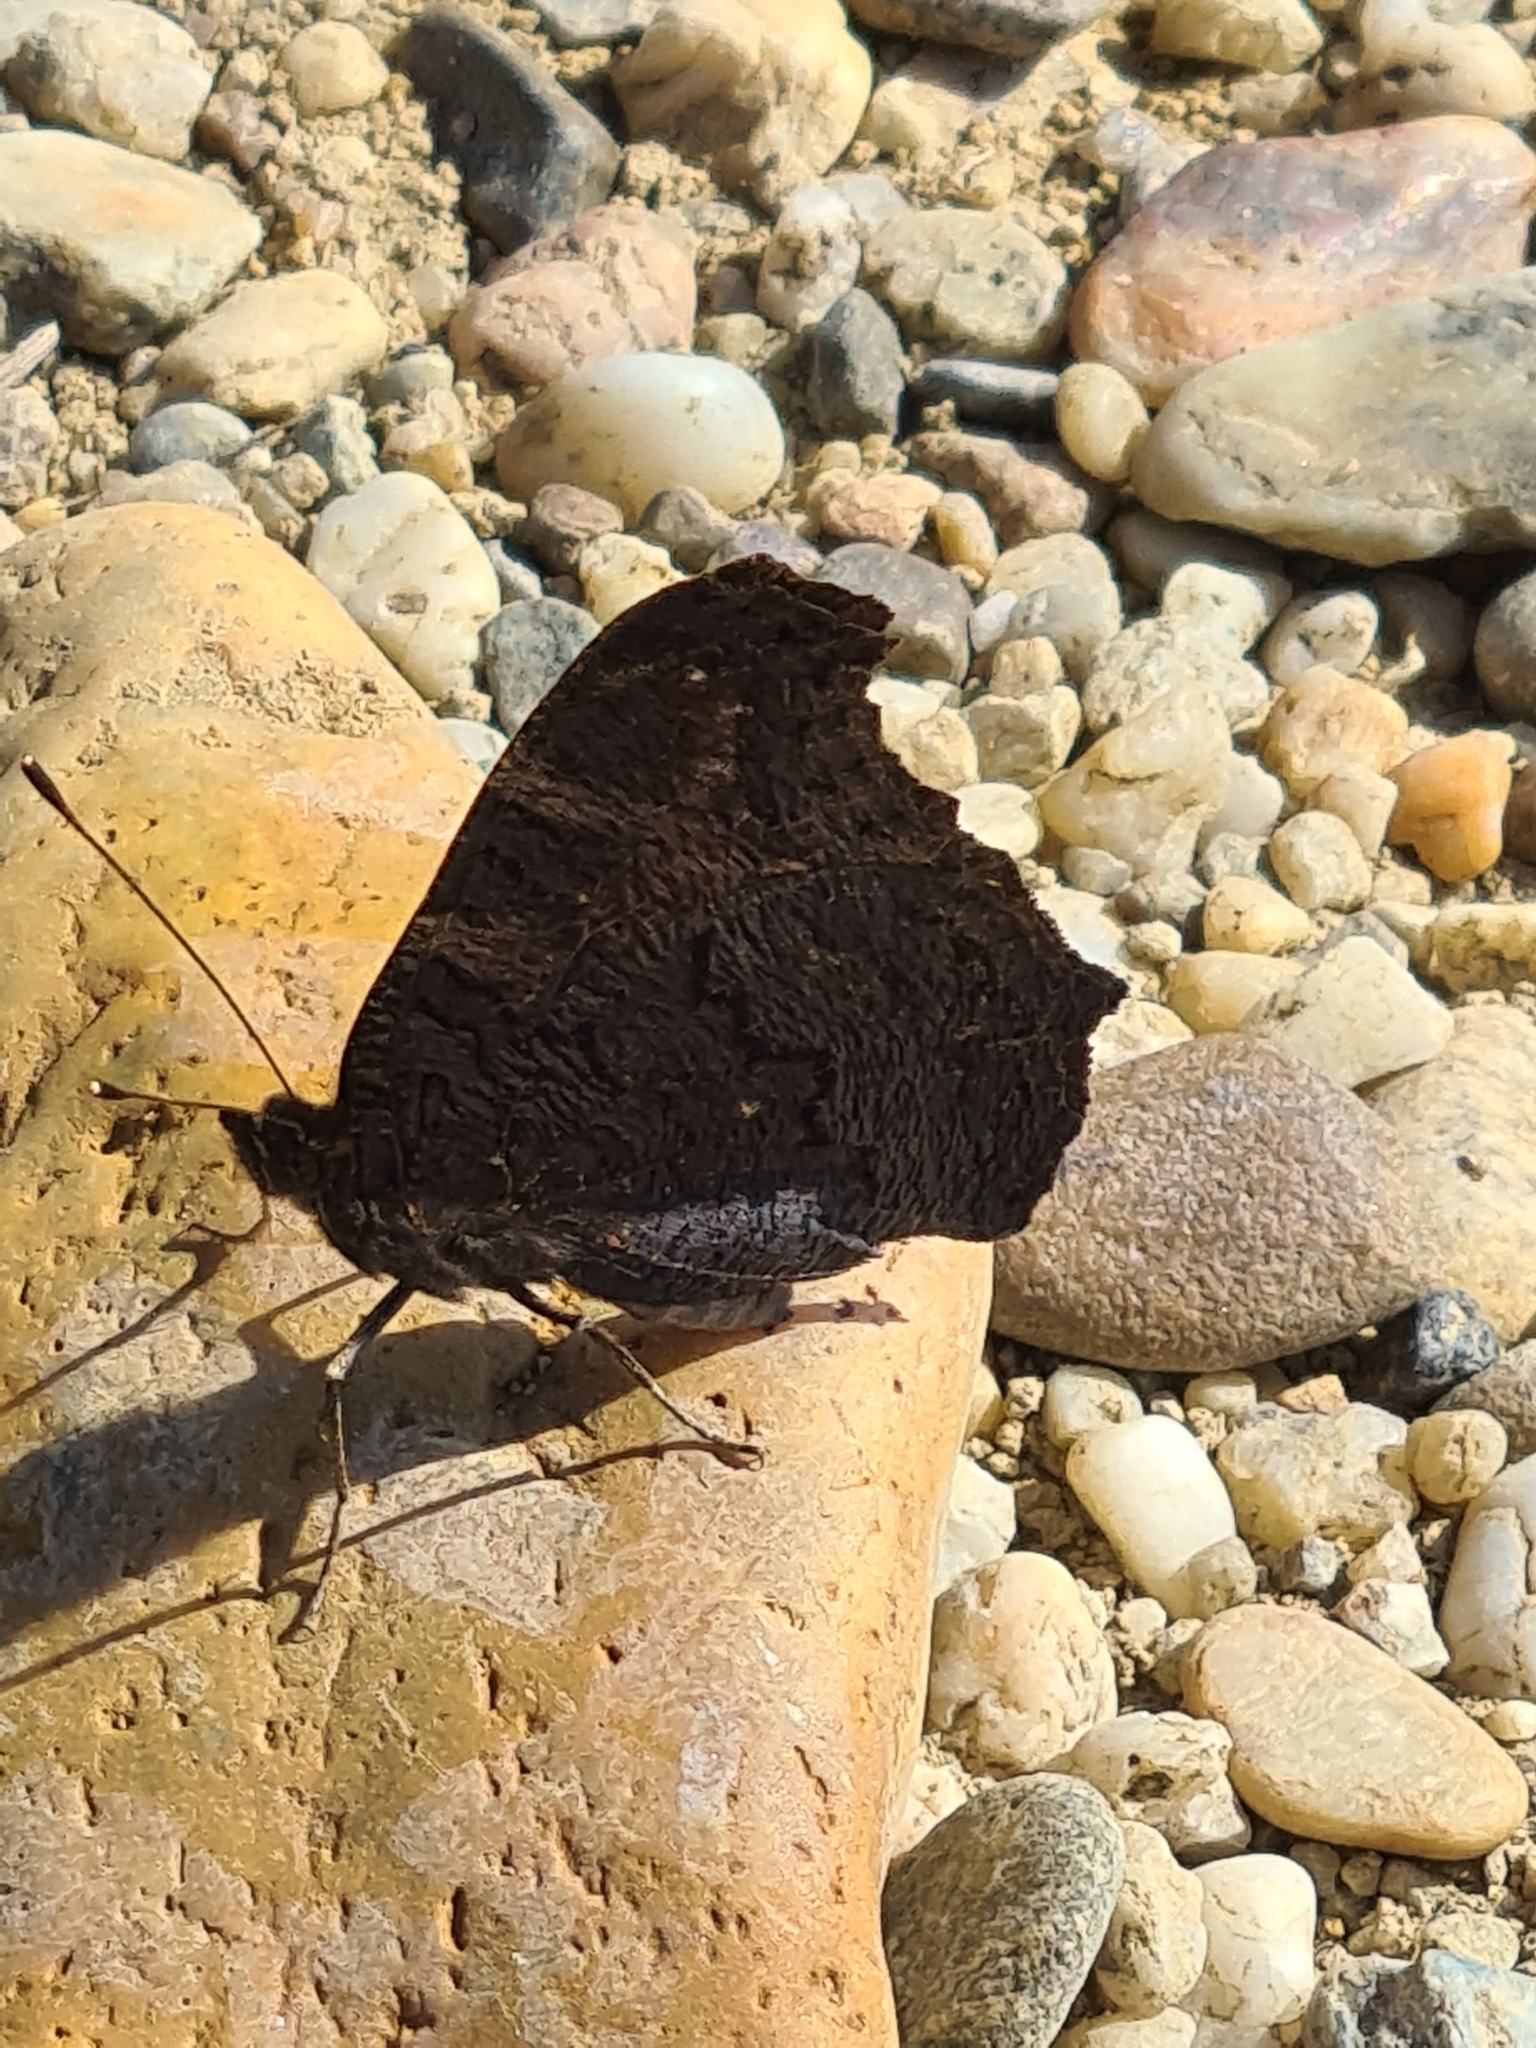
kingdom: Animalia
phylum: Arthropoda
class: Insecta
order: Lepidoptera
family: Nymphalidae
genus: Aglais
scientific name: Aglais io
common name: Peacock
